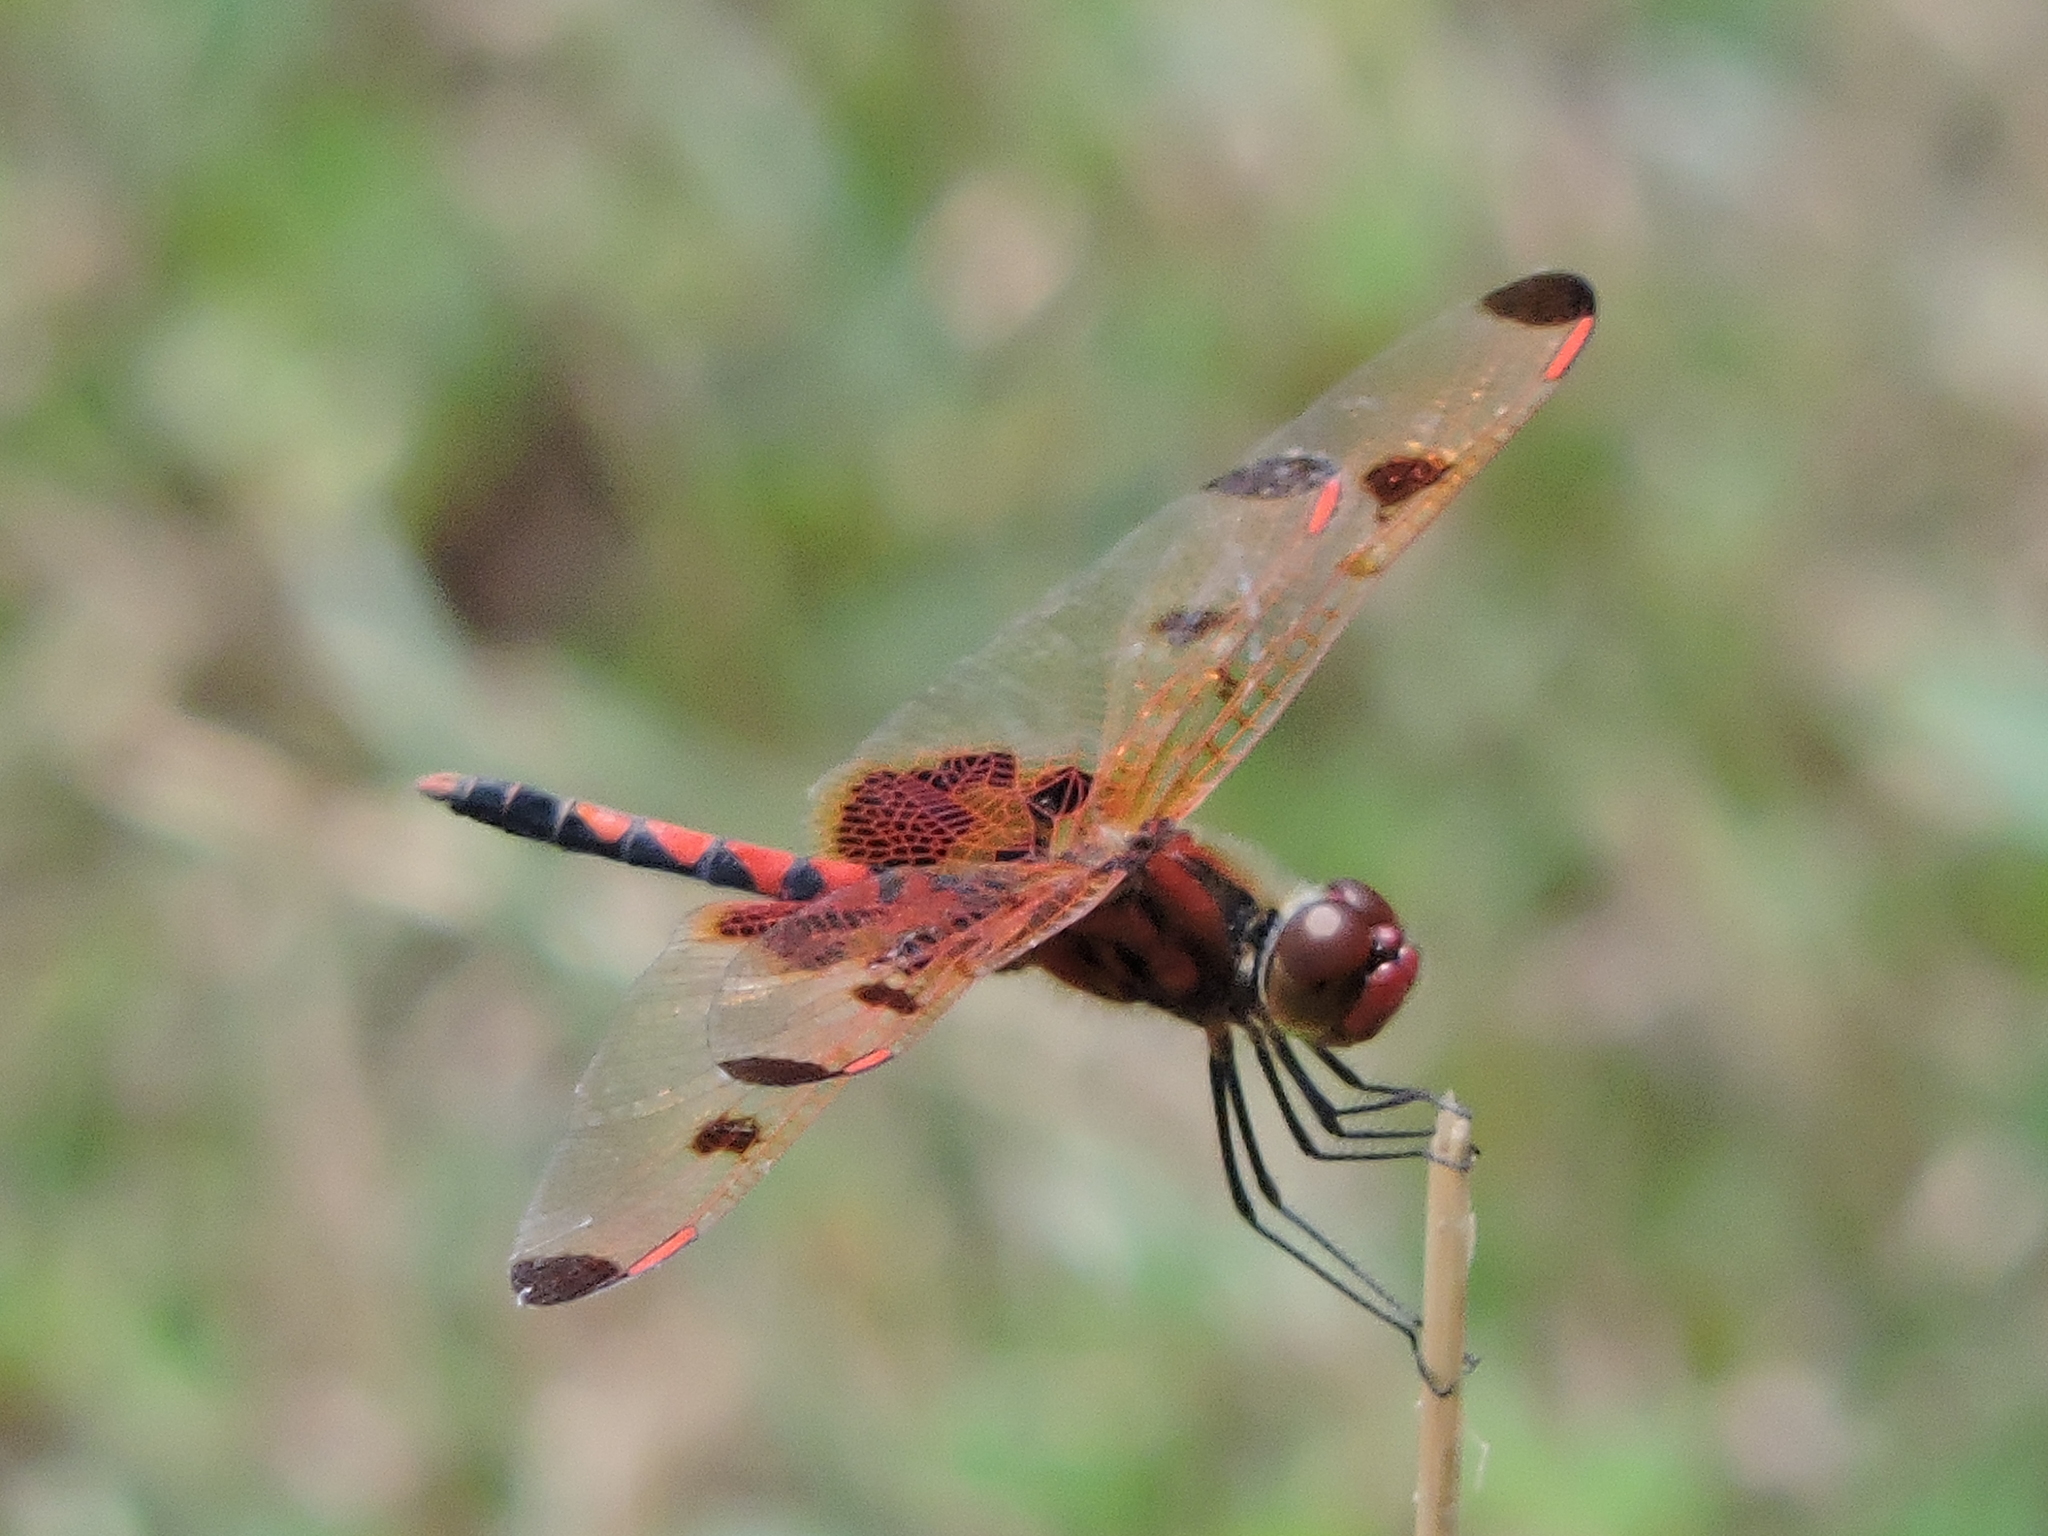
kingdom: Animalia
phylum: Arthropoda
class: Insecta
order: Odonata
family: Libellulidae
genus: Celithemis
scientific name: Celithemis elisa
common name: Calico pennant
